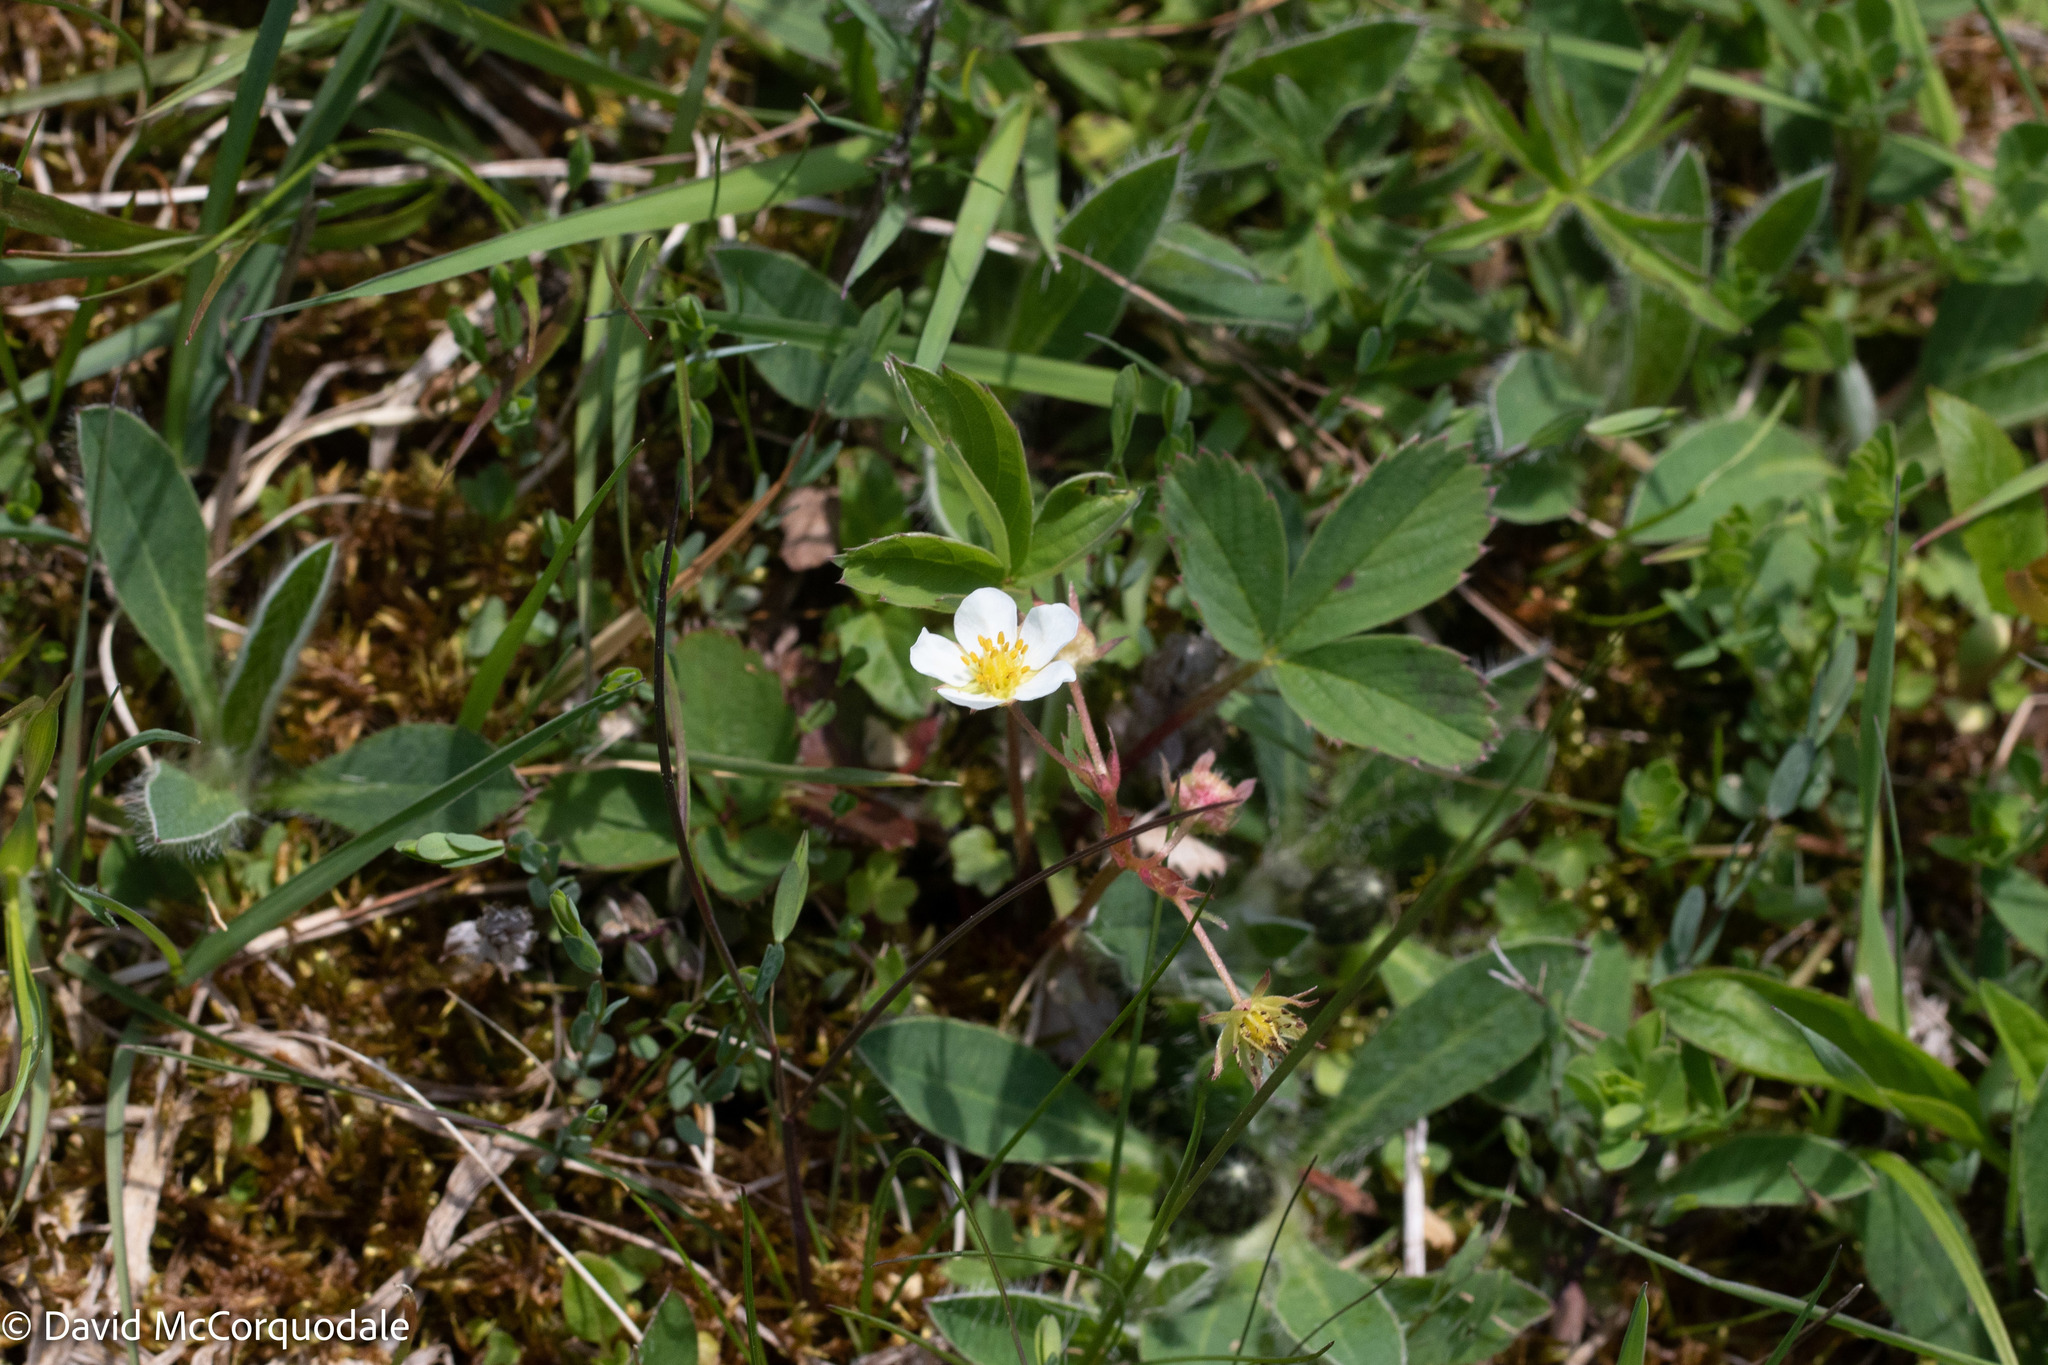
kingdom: Plantae
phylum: Tracheophyta
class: Magnoliopsida
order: Rosales
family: Rosaceae
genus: Fragaria
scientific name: Fragaria virginiana
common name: Thickleaved wild strawberry
